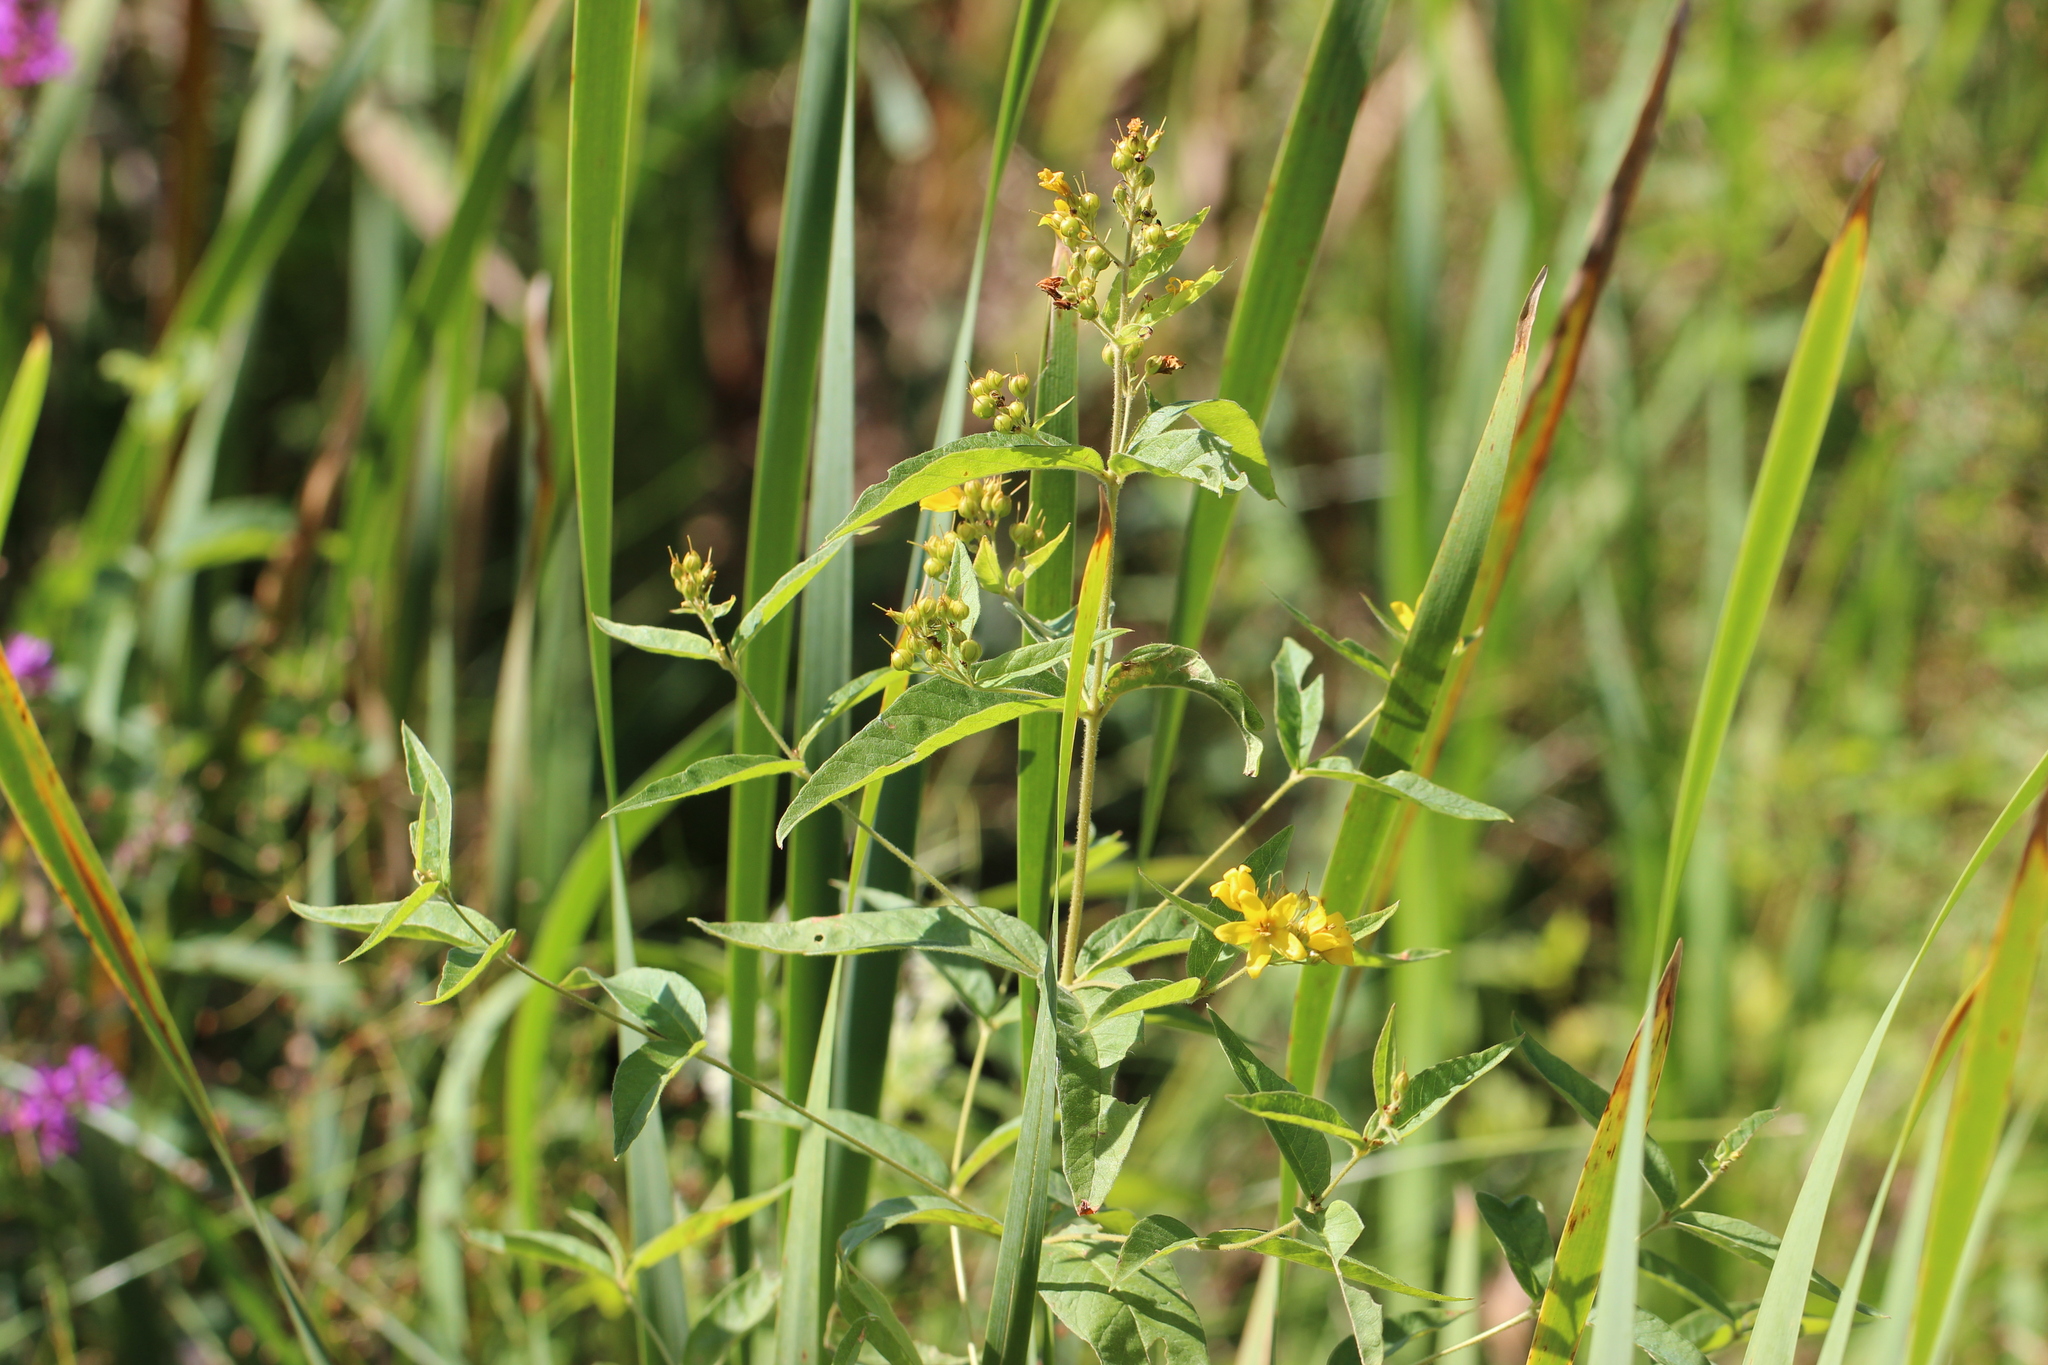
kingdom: Plantae
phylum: Tracheophyta
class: Magnoliopsida
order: Ericales
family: Primulaceae
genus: Lysimachia
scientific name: Lysimachia vulgaris
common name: Yellow loosestrife
